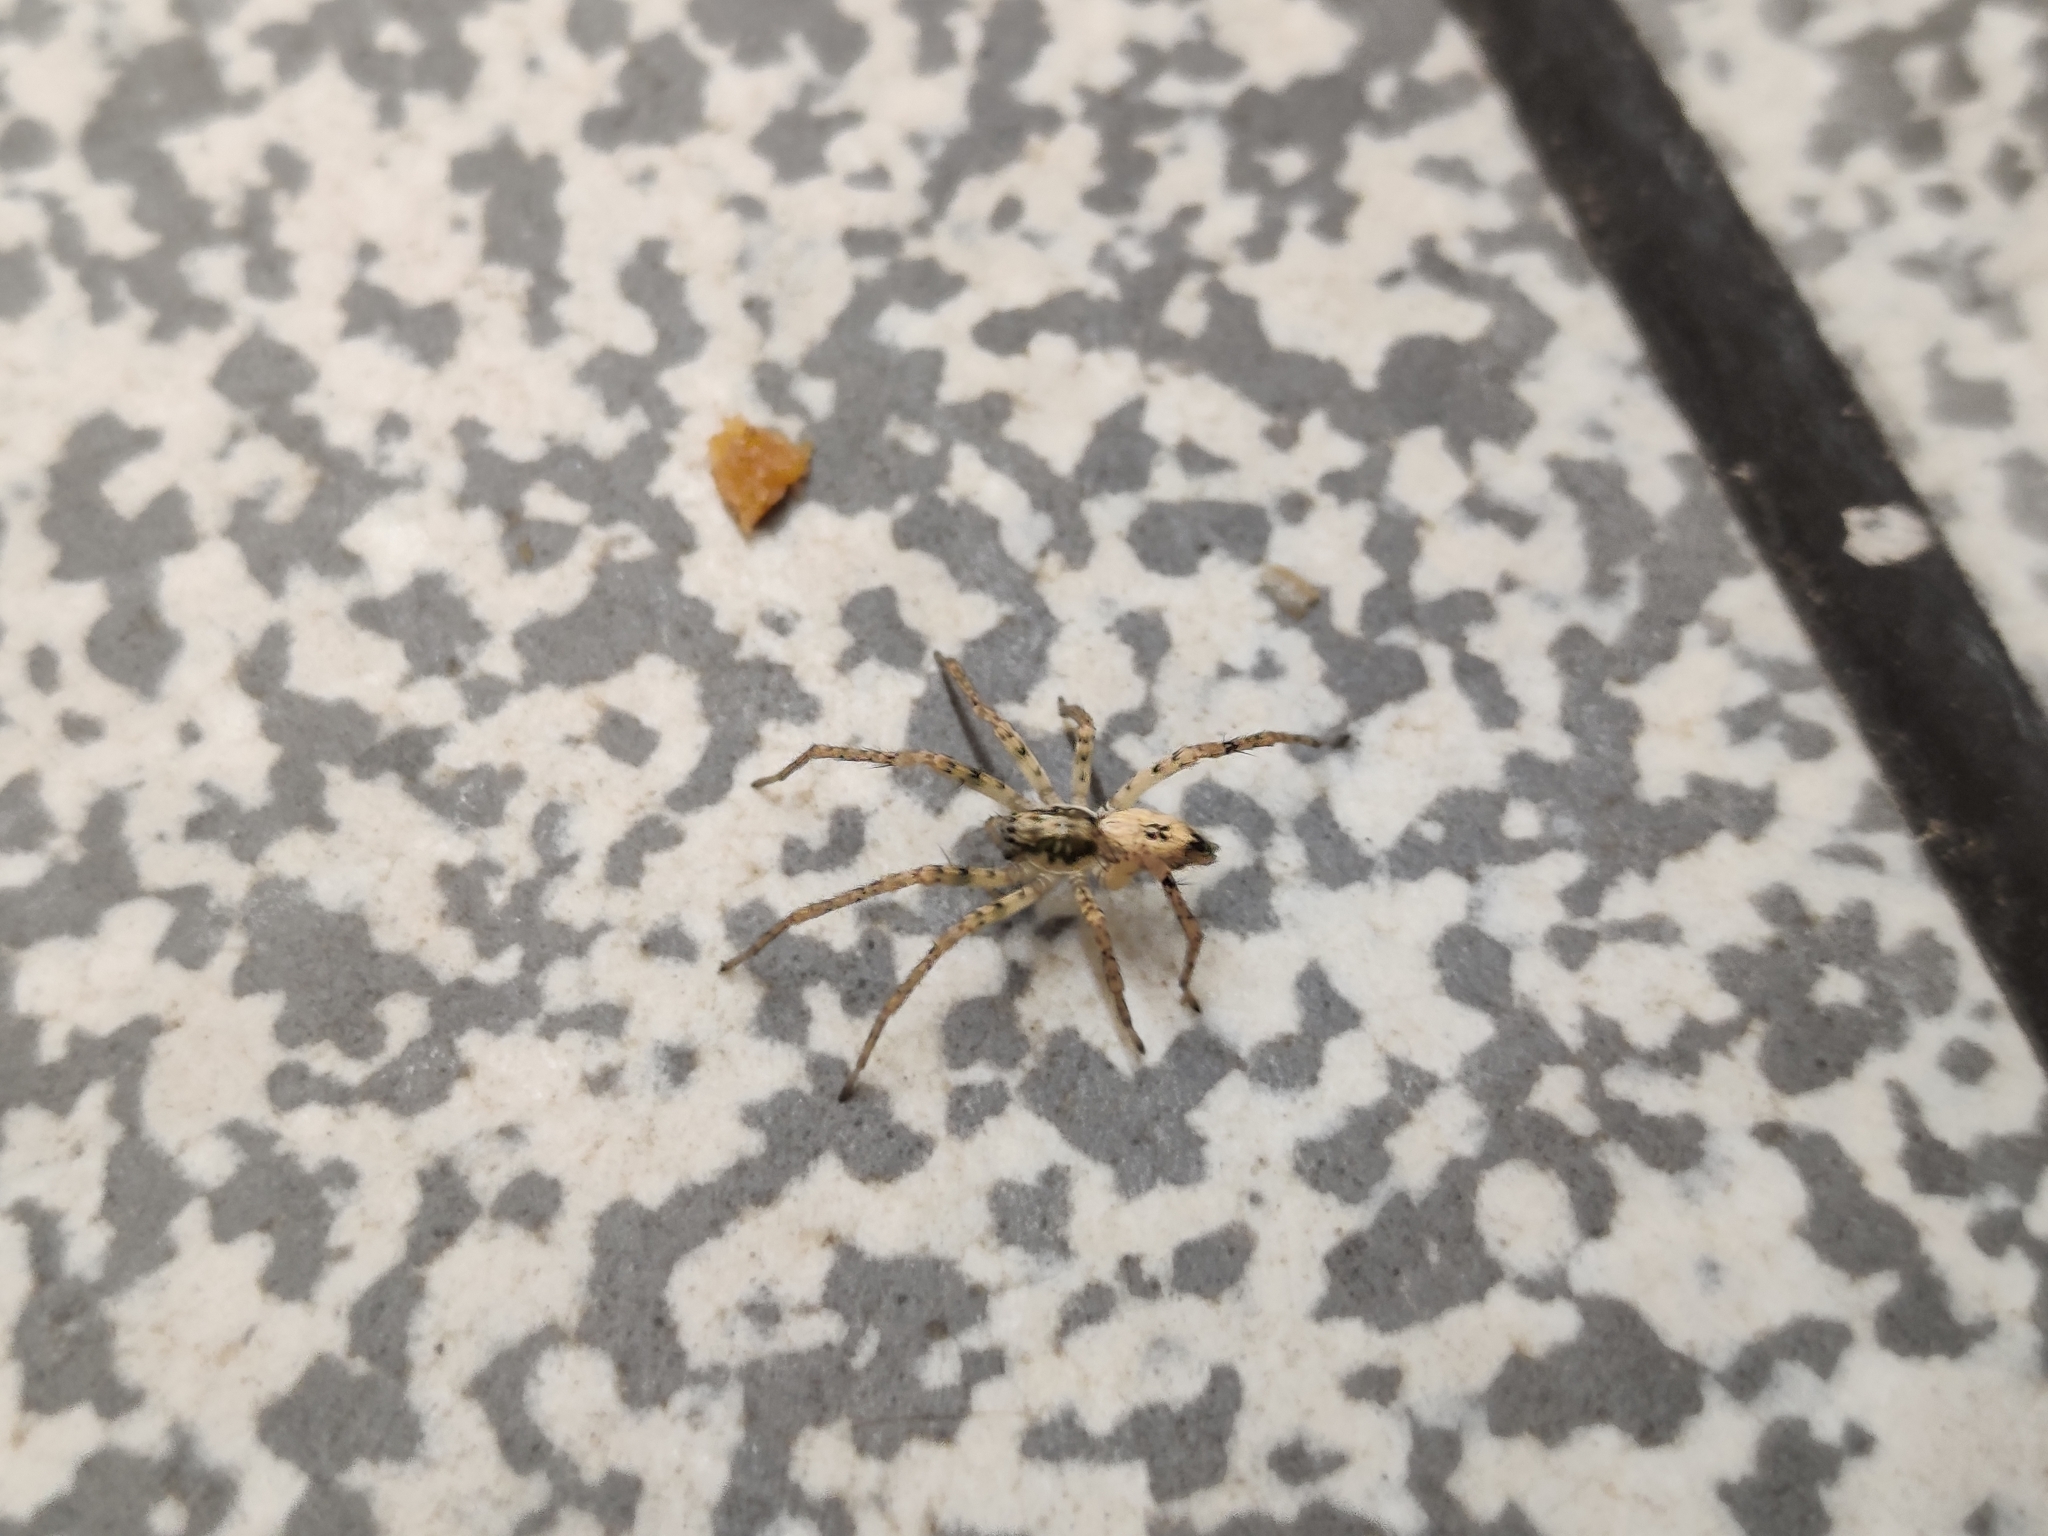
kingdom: Animalia
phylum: Arthropoda
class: Arachnida
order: Araneae
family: Anyphaenidae
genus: Anyphaena
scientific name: Anyphaena accentuata
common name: Buzzing spider
